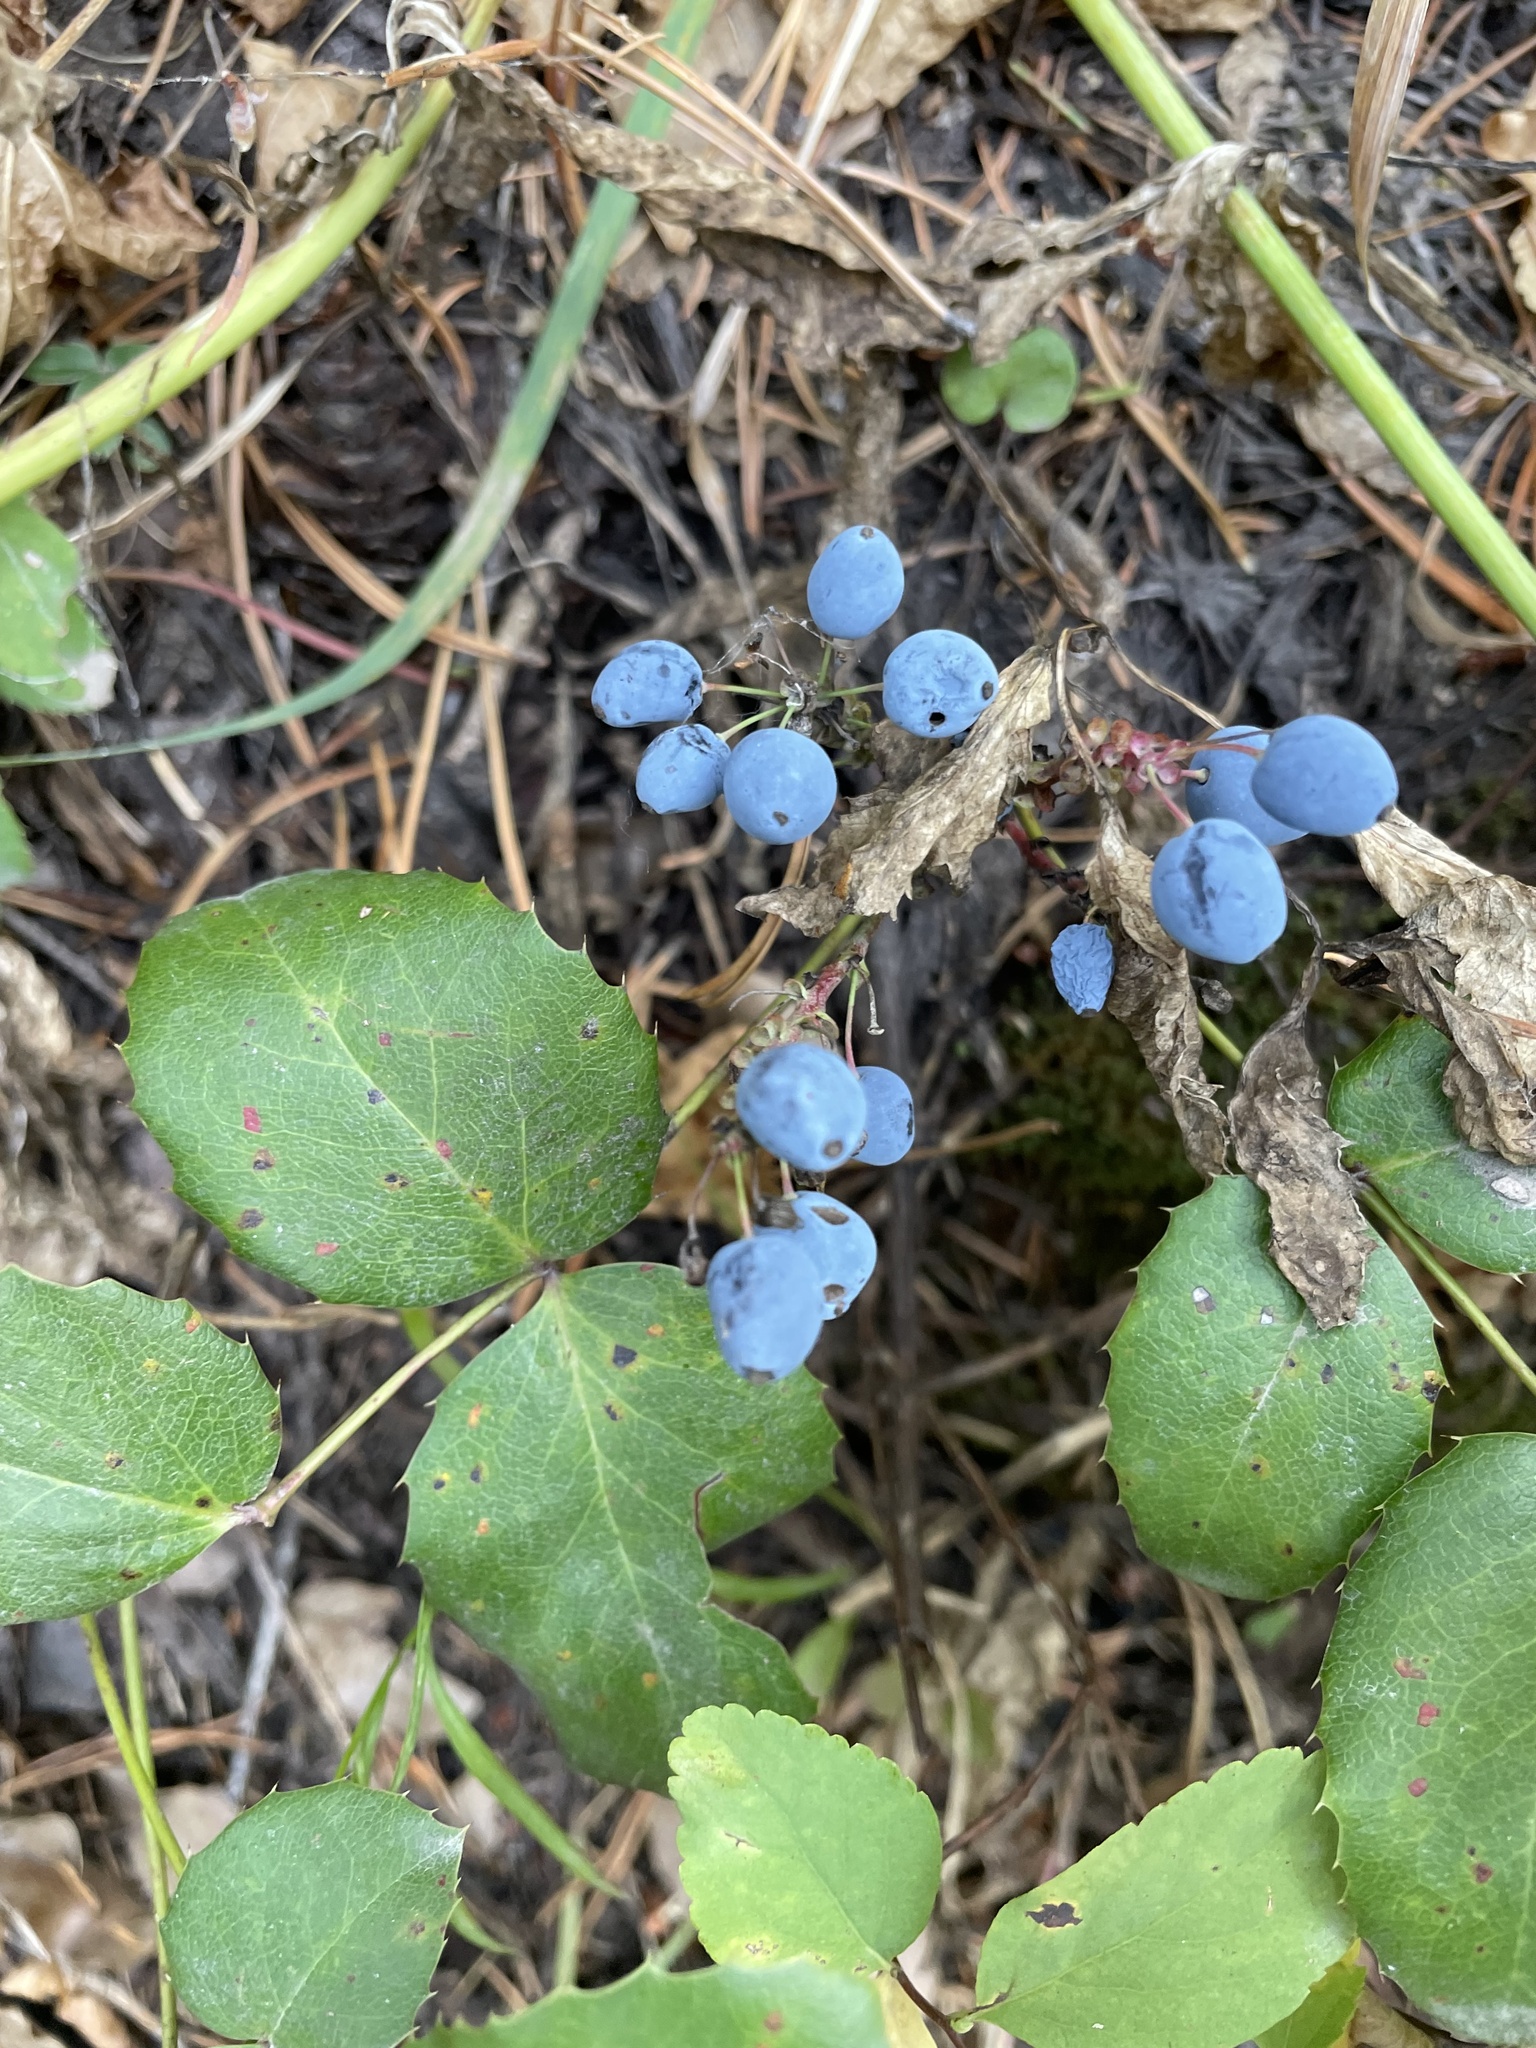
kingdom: Plantae
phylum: Tracheophyta
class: Magnoliopsida
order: Ranunculales
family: Berberidaceae
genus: Mahonia
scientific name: Mahonia repens
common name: Creeping oregon-grape
